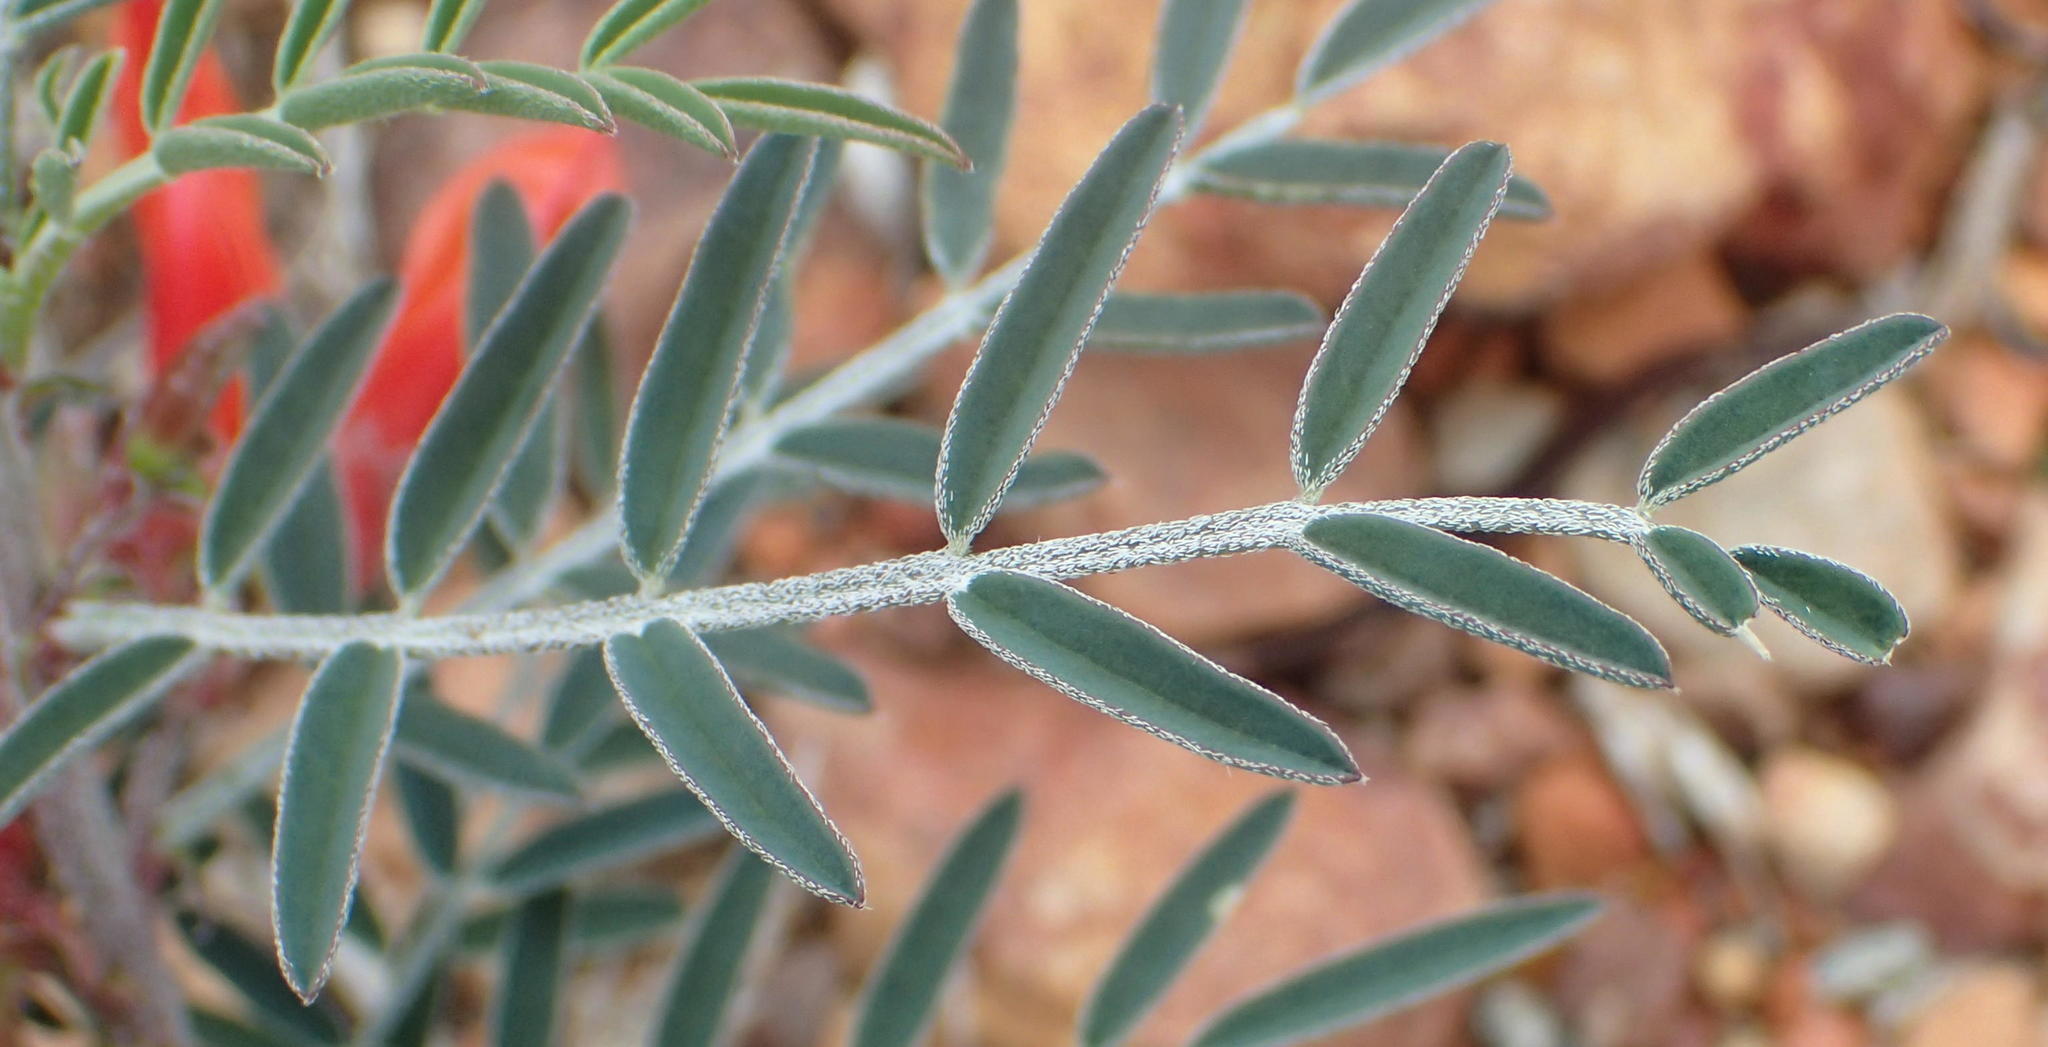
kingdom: Plantae
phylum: Tracheophyta
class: Magnoliopsida
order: Fabales
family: Fabaceae
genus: Lessertia
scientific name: Lessertia frutescens
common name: Balloon-pea
